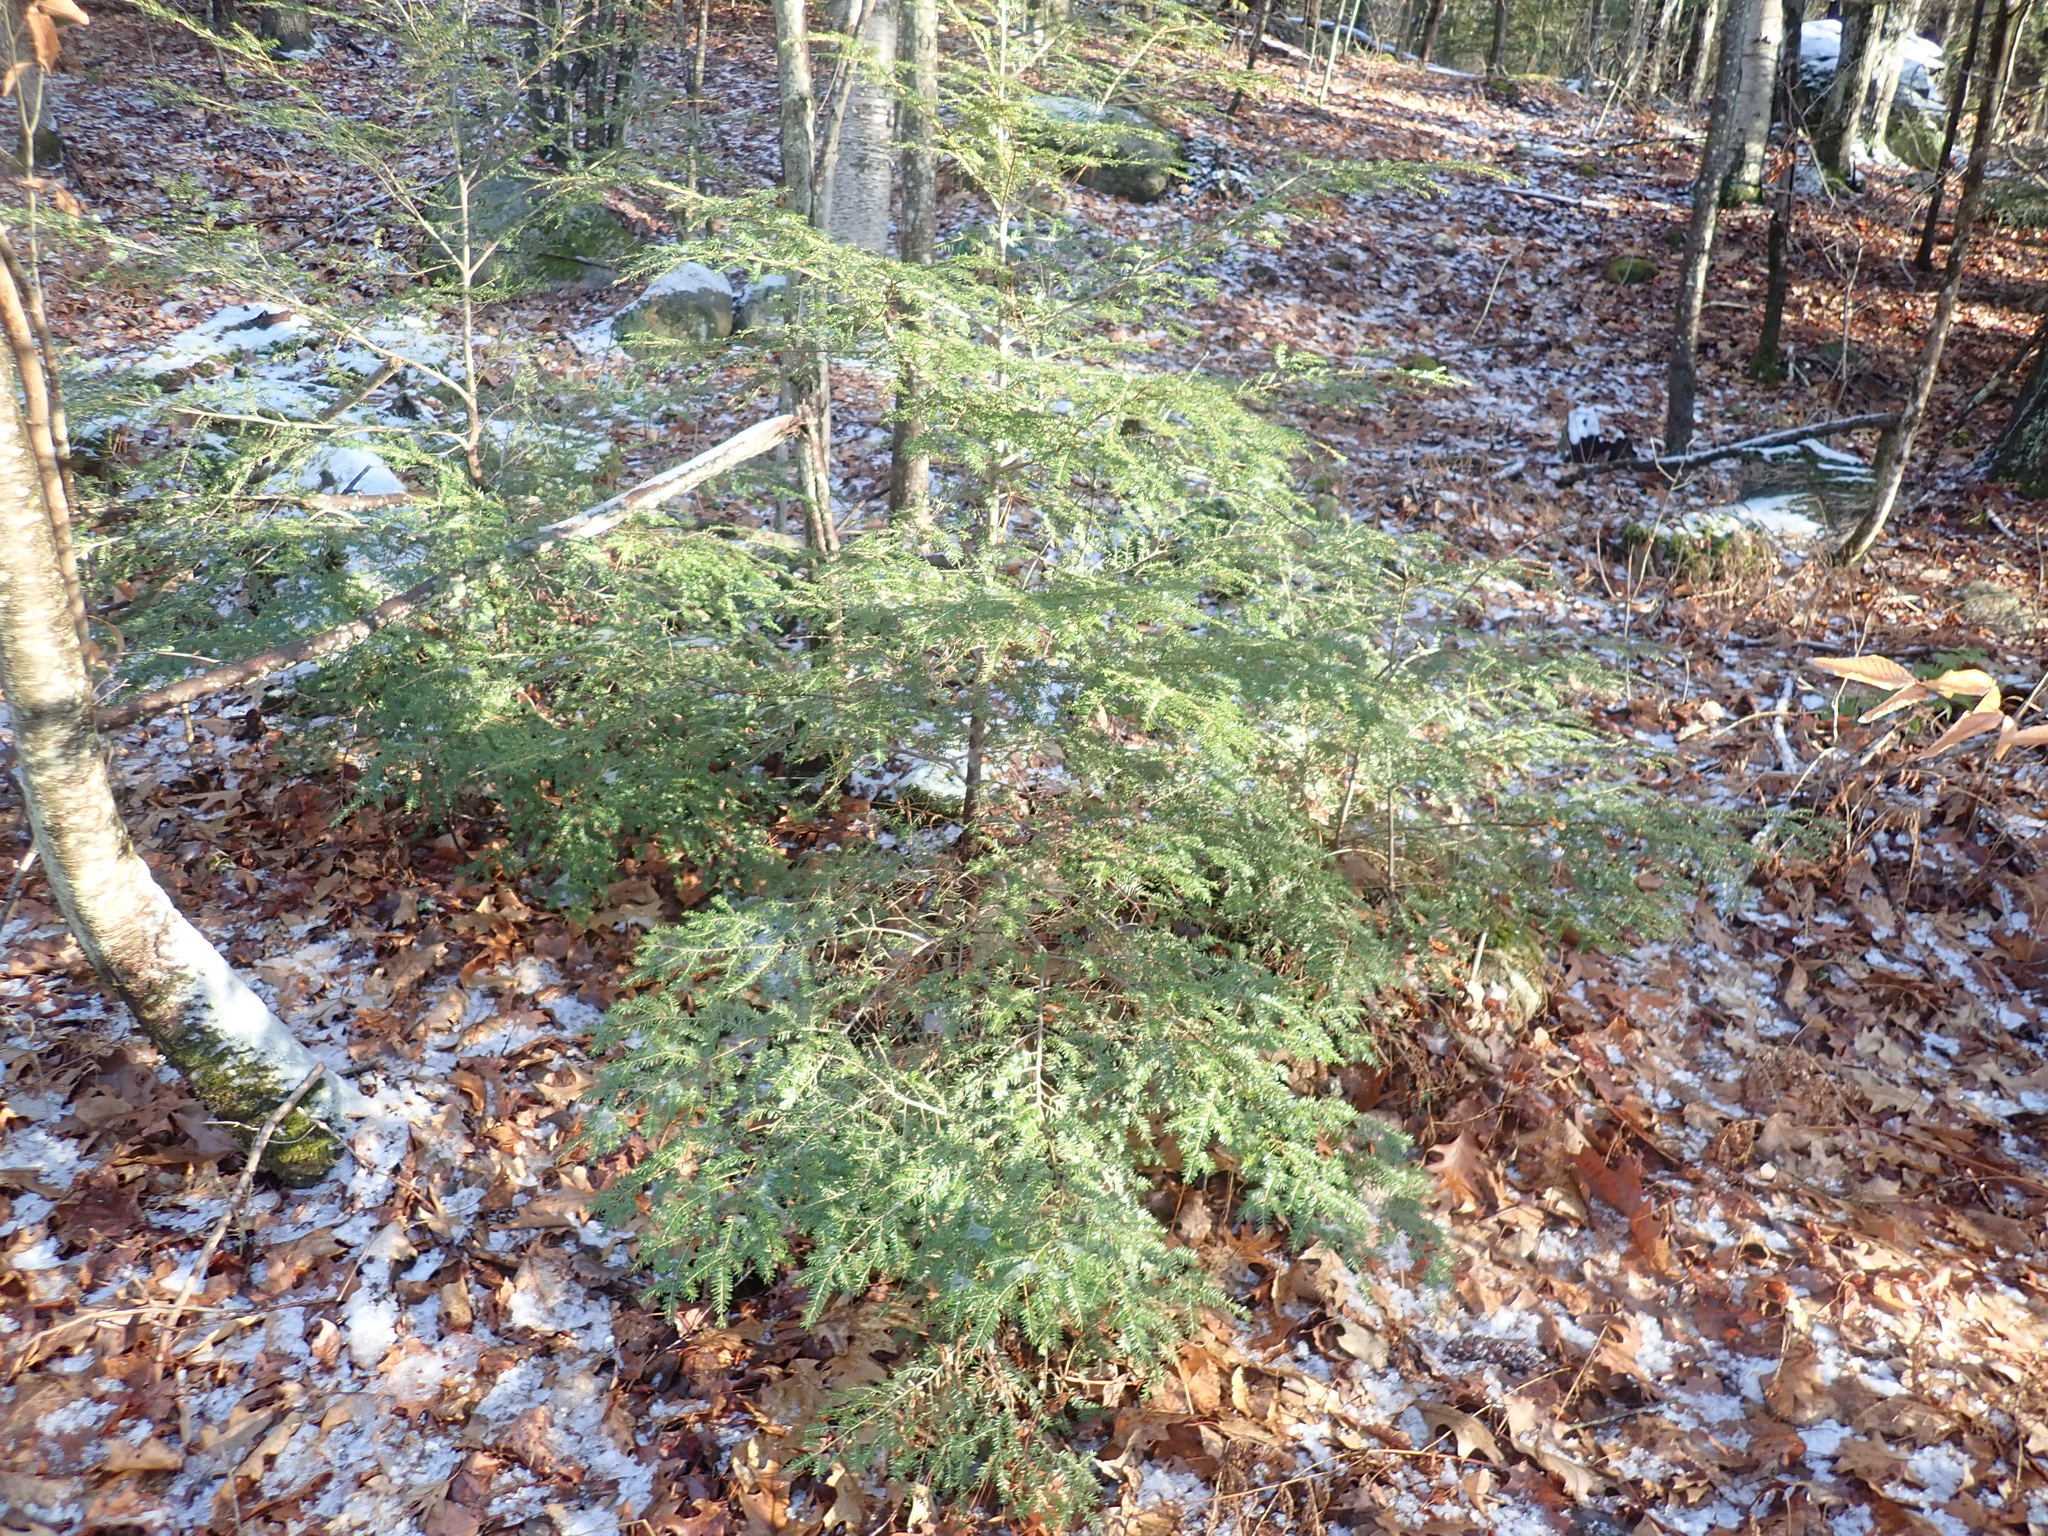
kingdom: Plantae
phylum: Tracheophyta
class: Pinopsida
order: Pinales
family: Pinaceae
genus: Tsuga
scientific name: Tsuga canadensis
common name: Eastern hemlock
